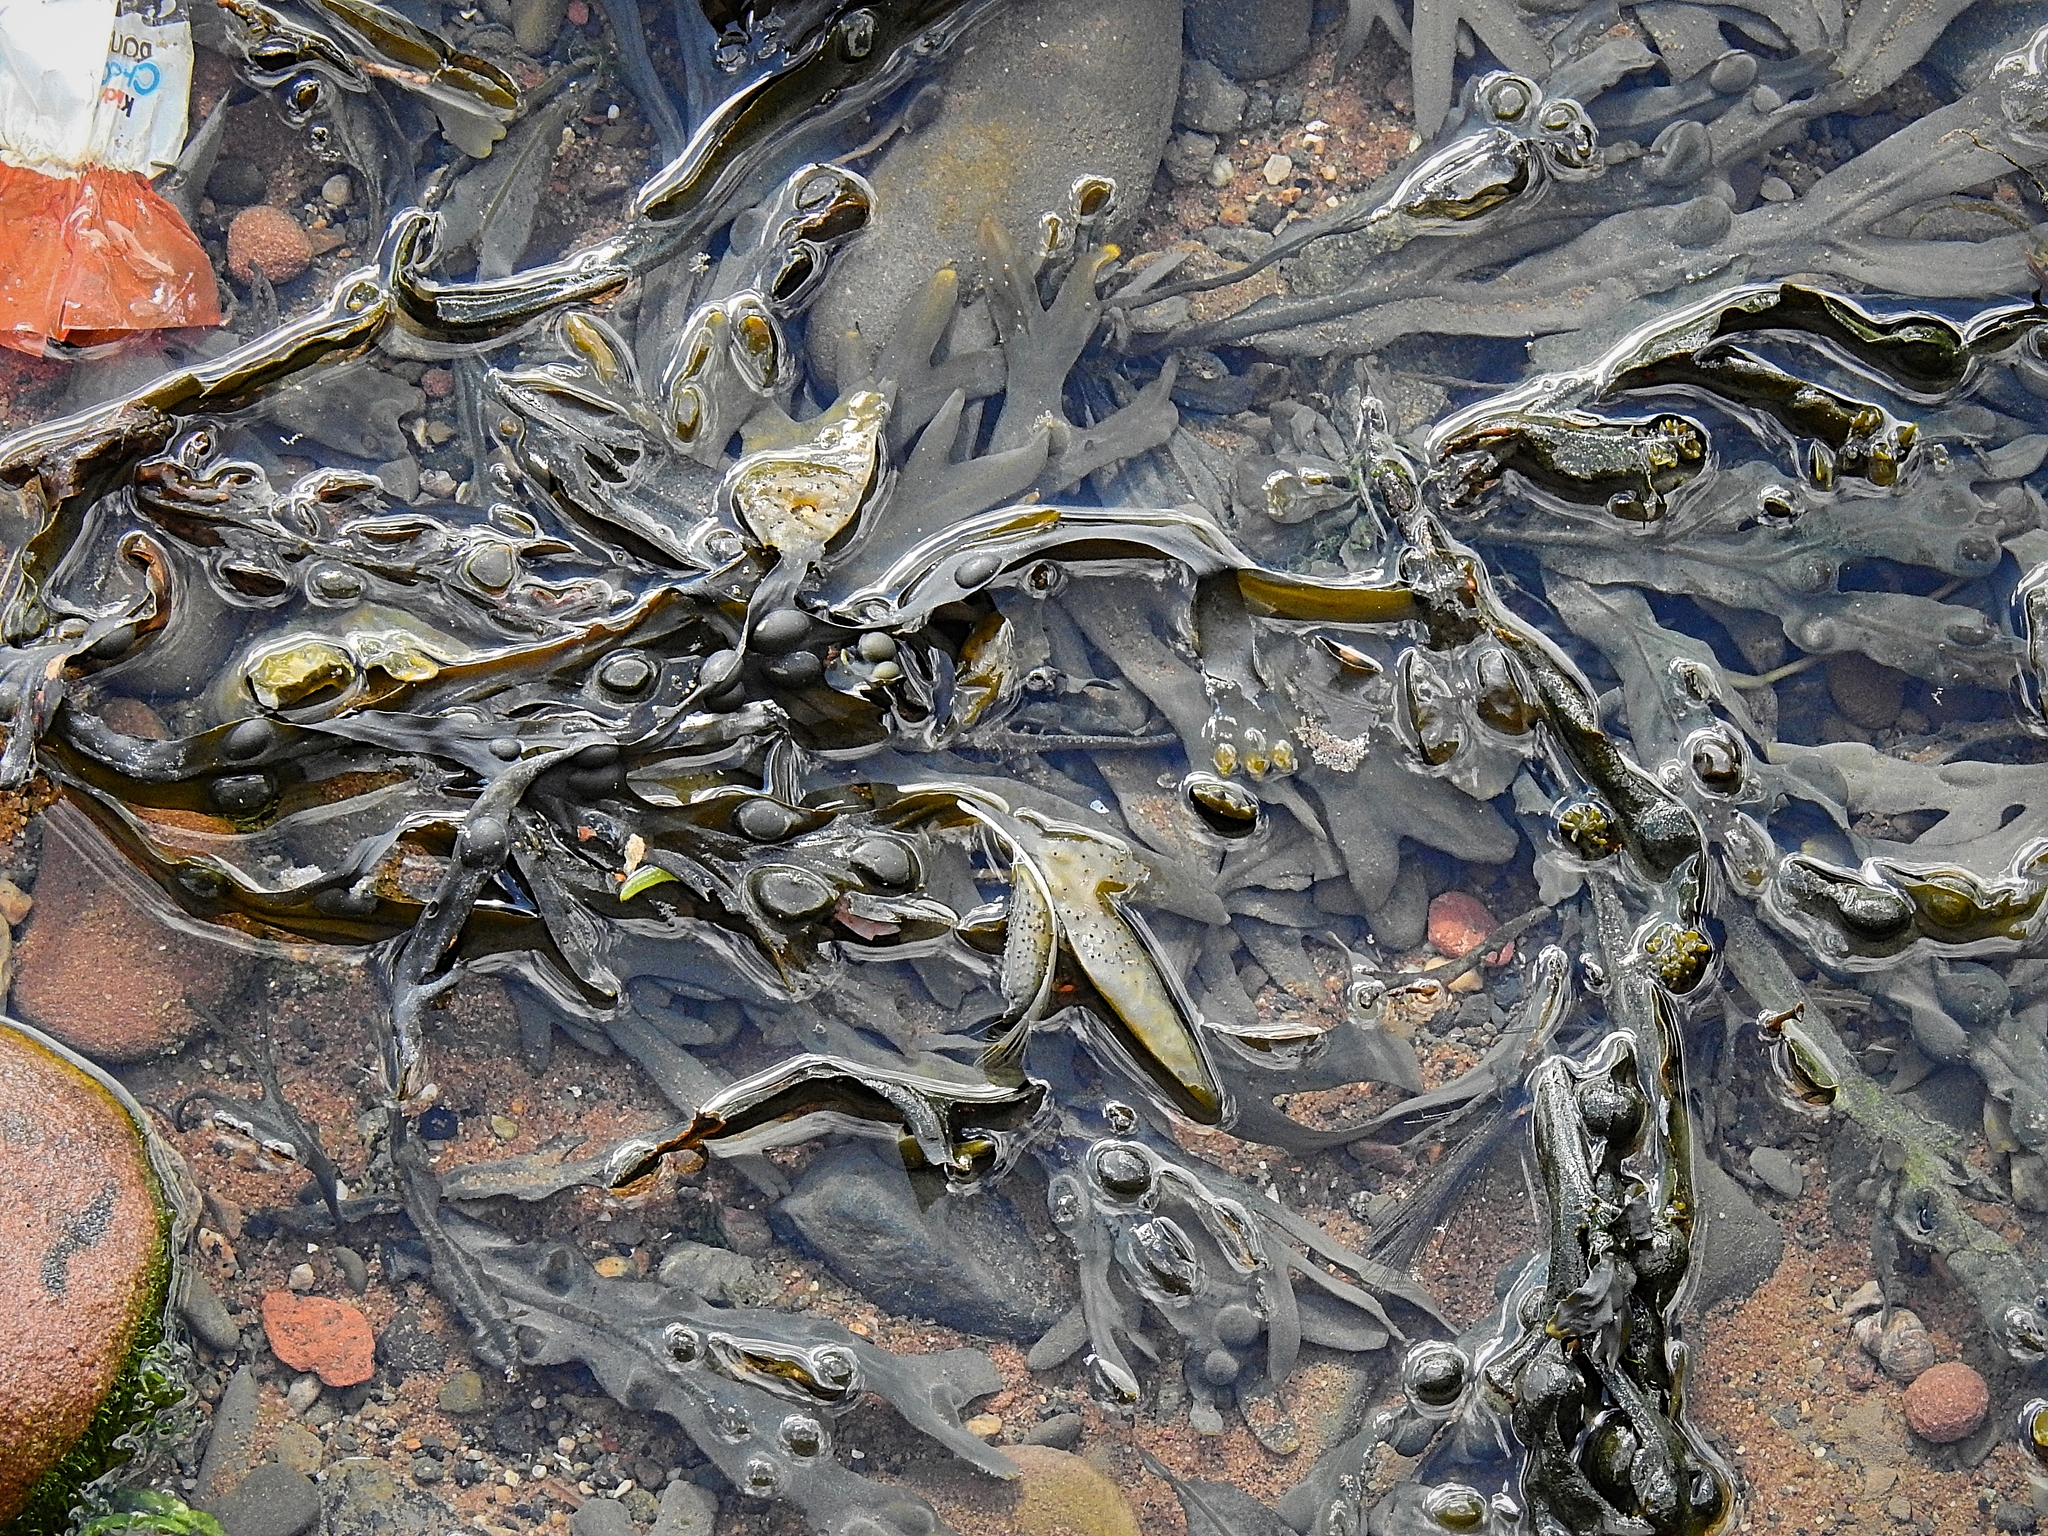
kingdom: Chromista
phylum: Ochrophyta
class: Phaeophyceae
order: Fucales
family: Fucaceae
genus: Fucus
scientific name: Fucus vesiculosus
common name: Bladder wrack
